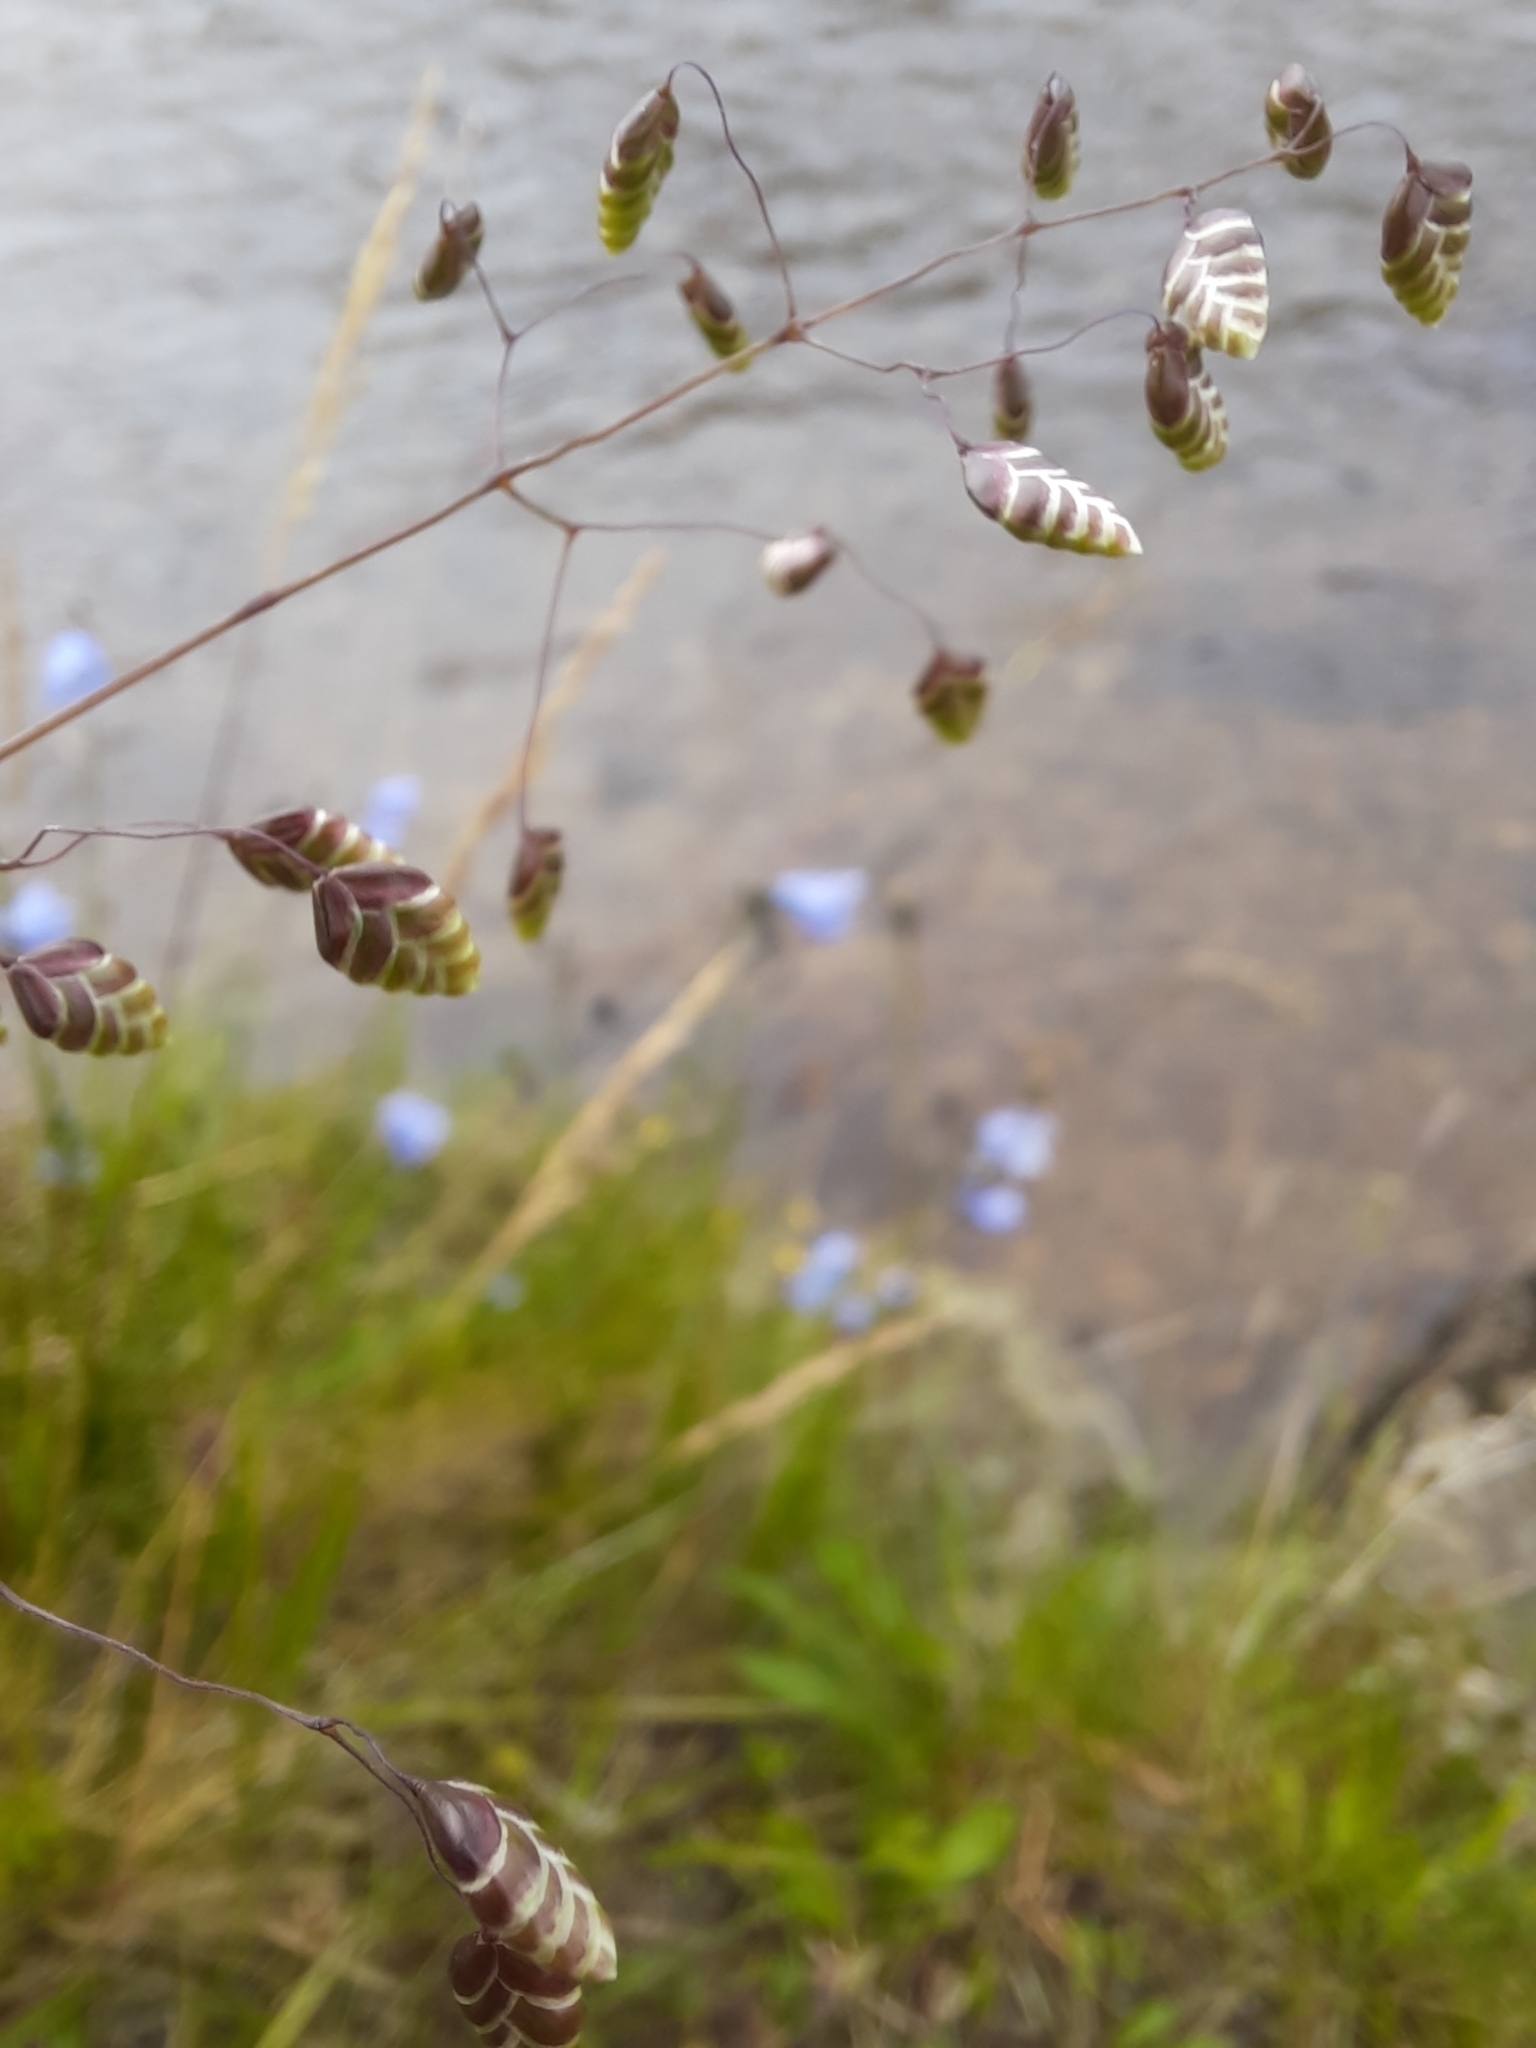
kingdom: Plantae
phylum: Tracheophyta
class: Liliopsida
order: Poales
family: Poaceae
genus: Briza
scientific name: Briza media
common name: Quaking grass
